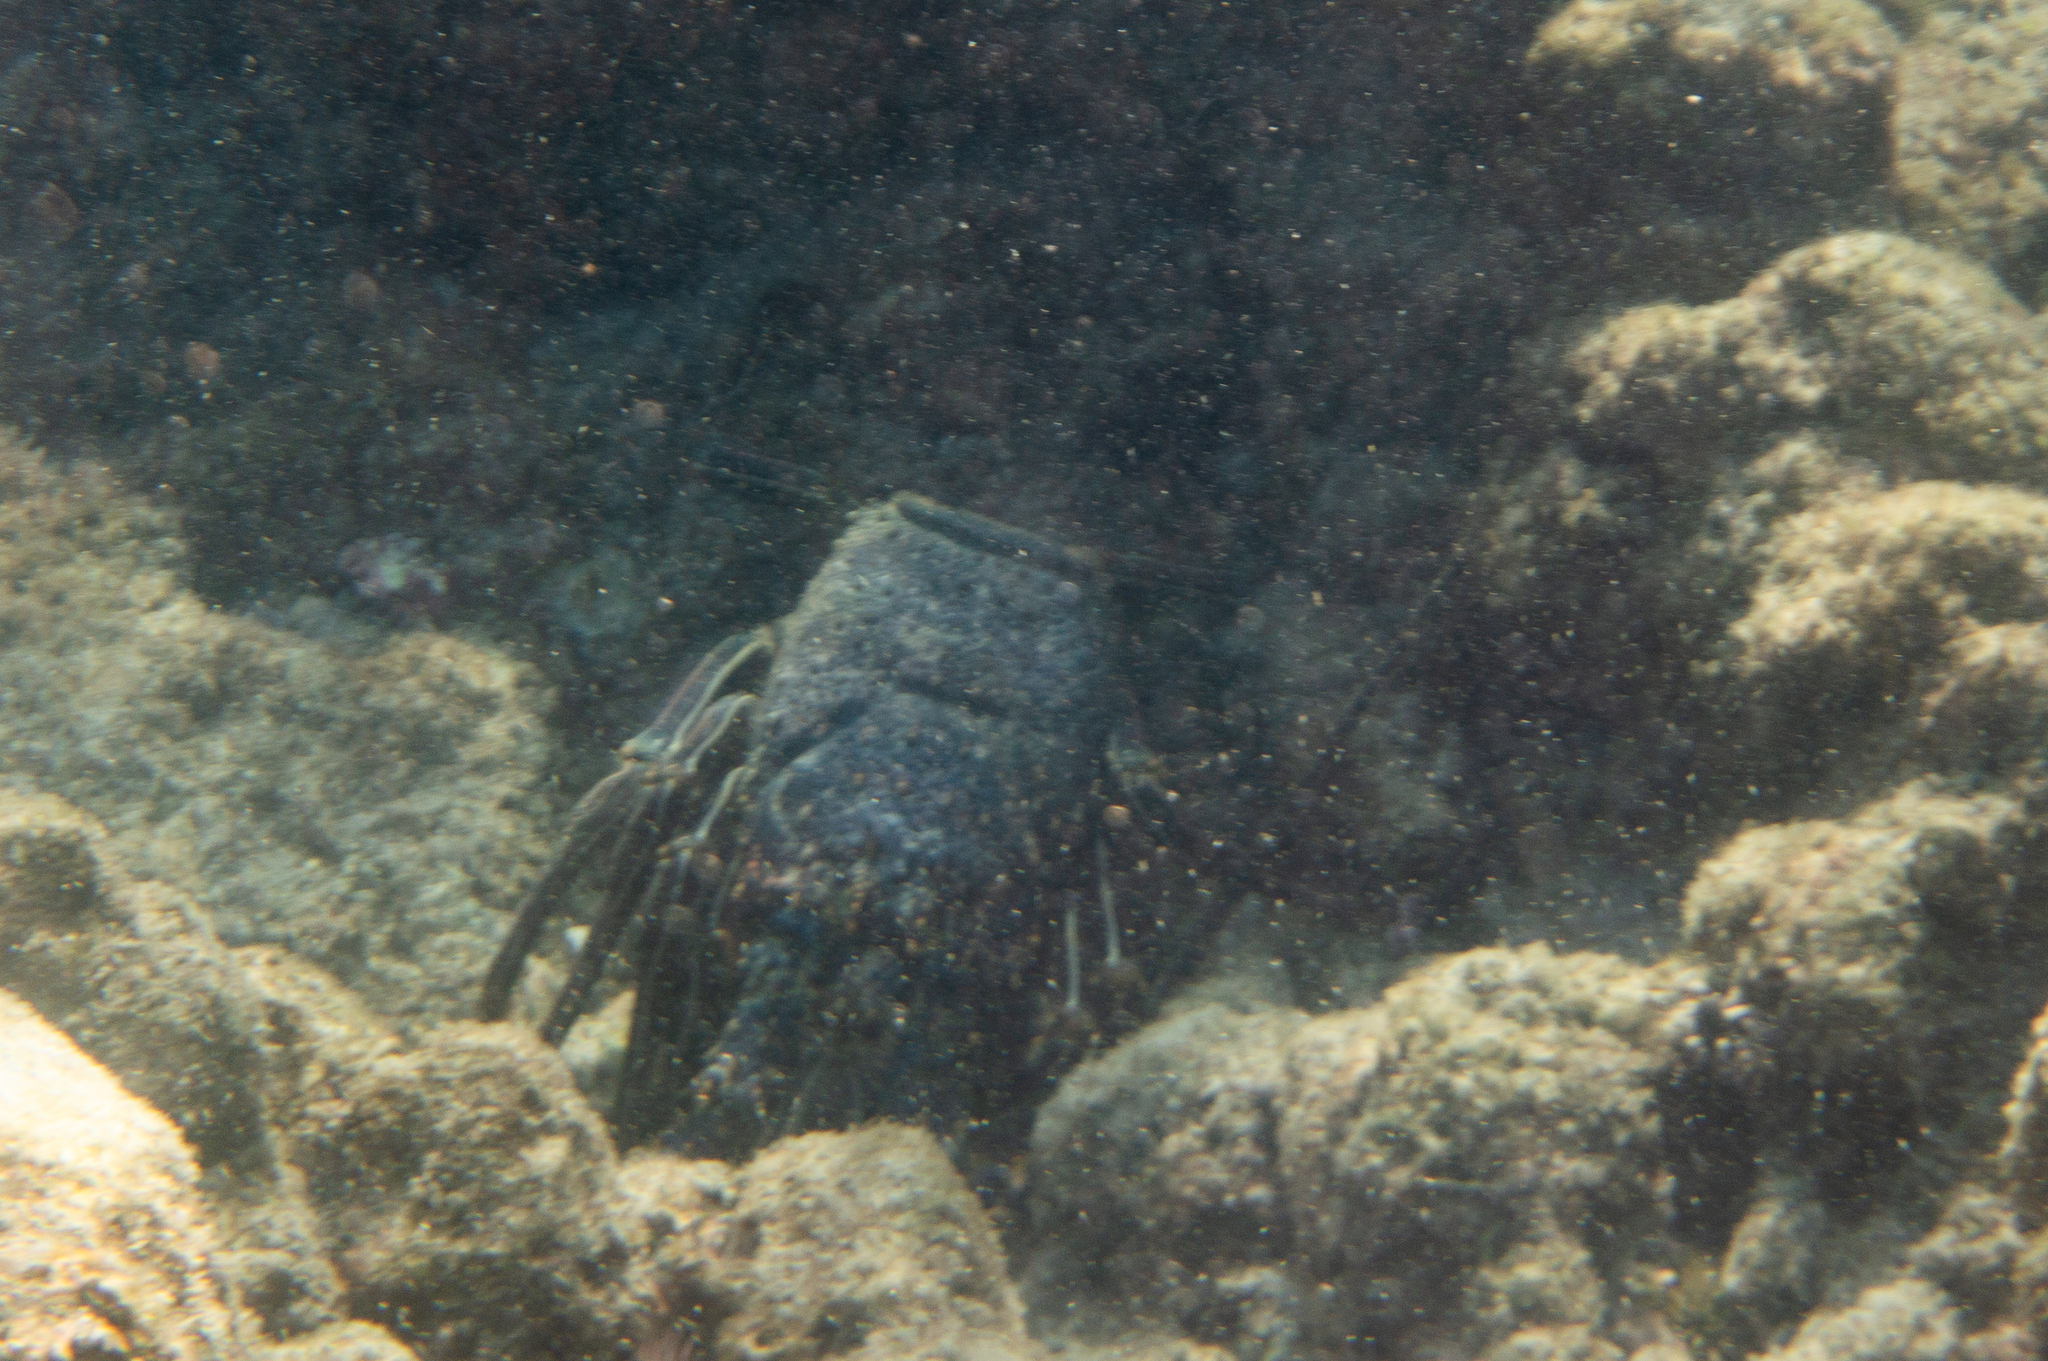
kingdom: Animalia
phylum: Arthropoda
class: Malacostraca
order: Decapoda
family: Palinuridae
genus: Panulirus
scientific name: Panulirus penicillatus
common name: Pronghorn spiny lobster
